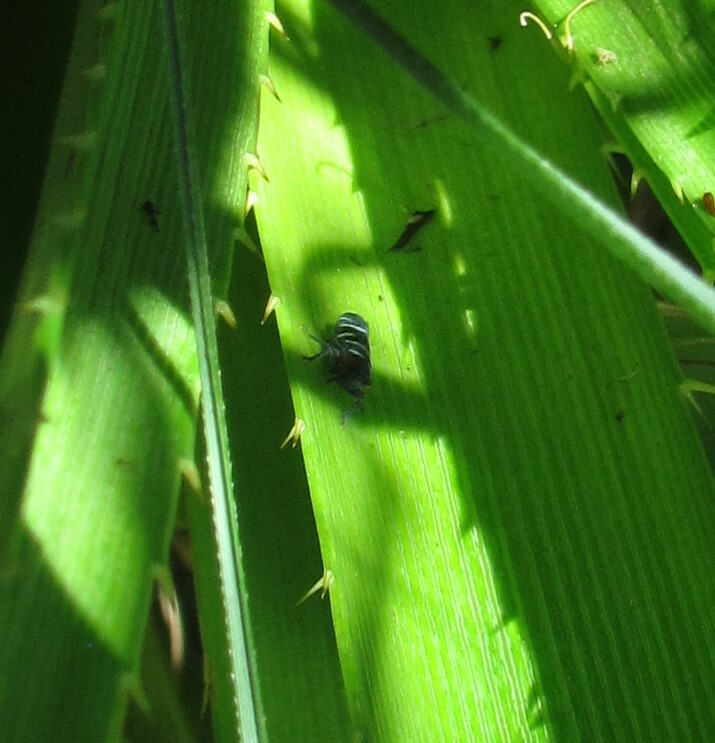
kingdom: Animalia
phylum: Arthropoda
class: Insecta
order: Hemiptera
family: Cicadellidae
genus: Balacha
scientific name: Balacha melanocephala
